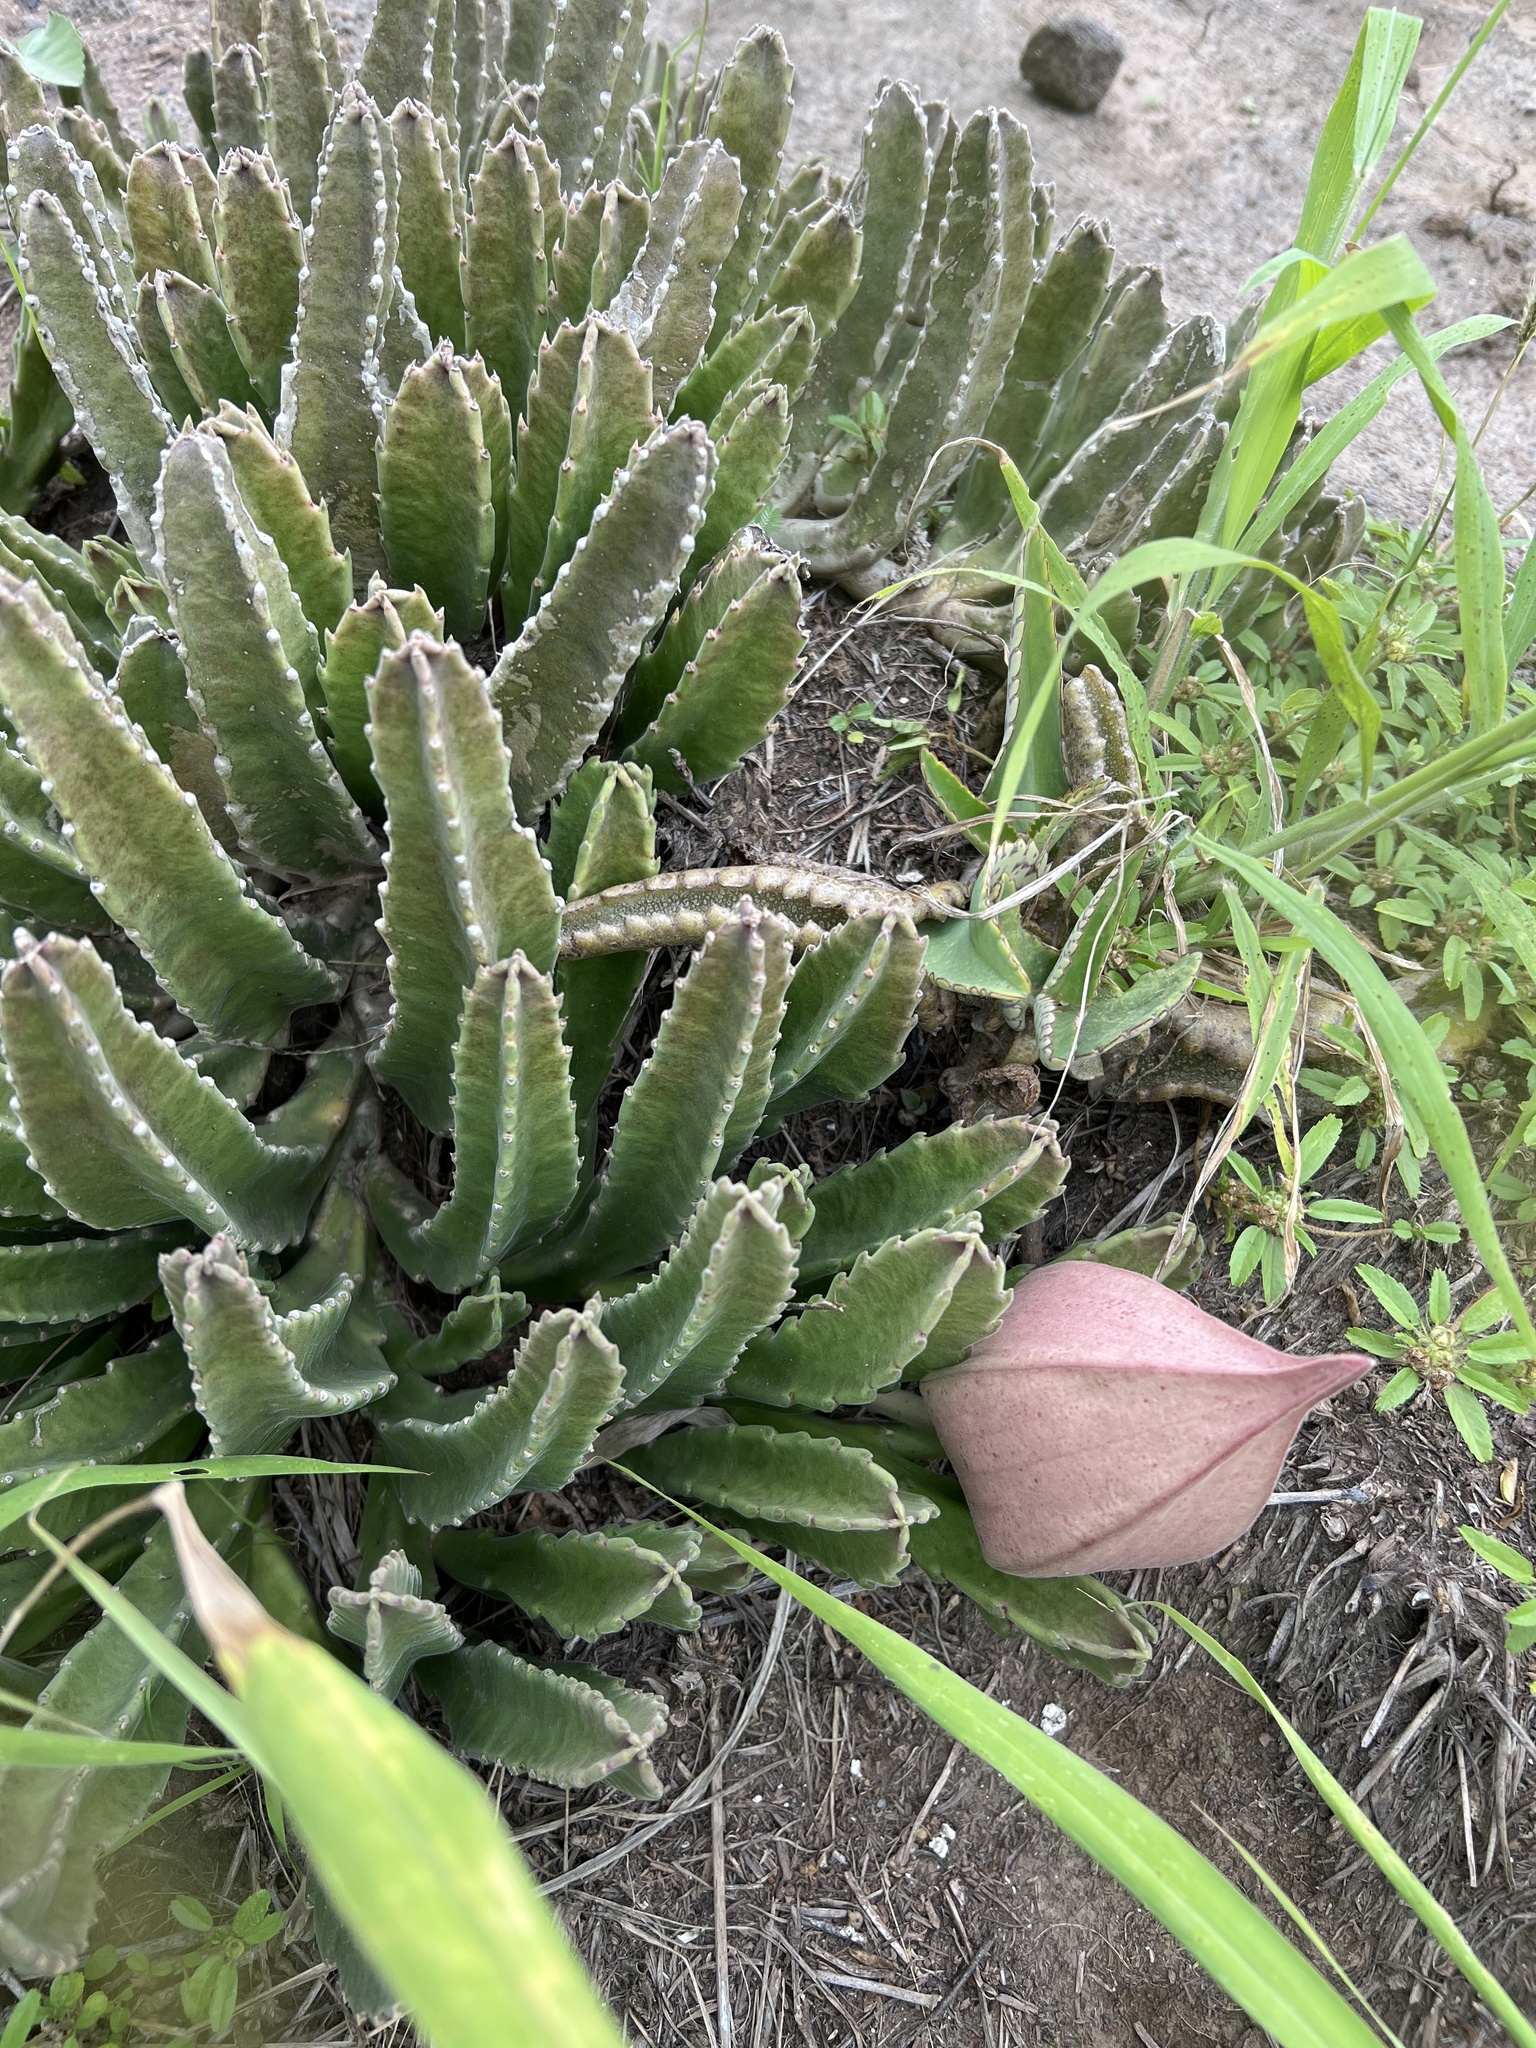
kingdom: Plantae
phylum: Tracheophyta
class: Magnoliopsida
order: Gentianales
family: Apocynaceae
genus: Ceropegia
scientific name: Ceropegia gigantea
